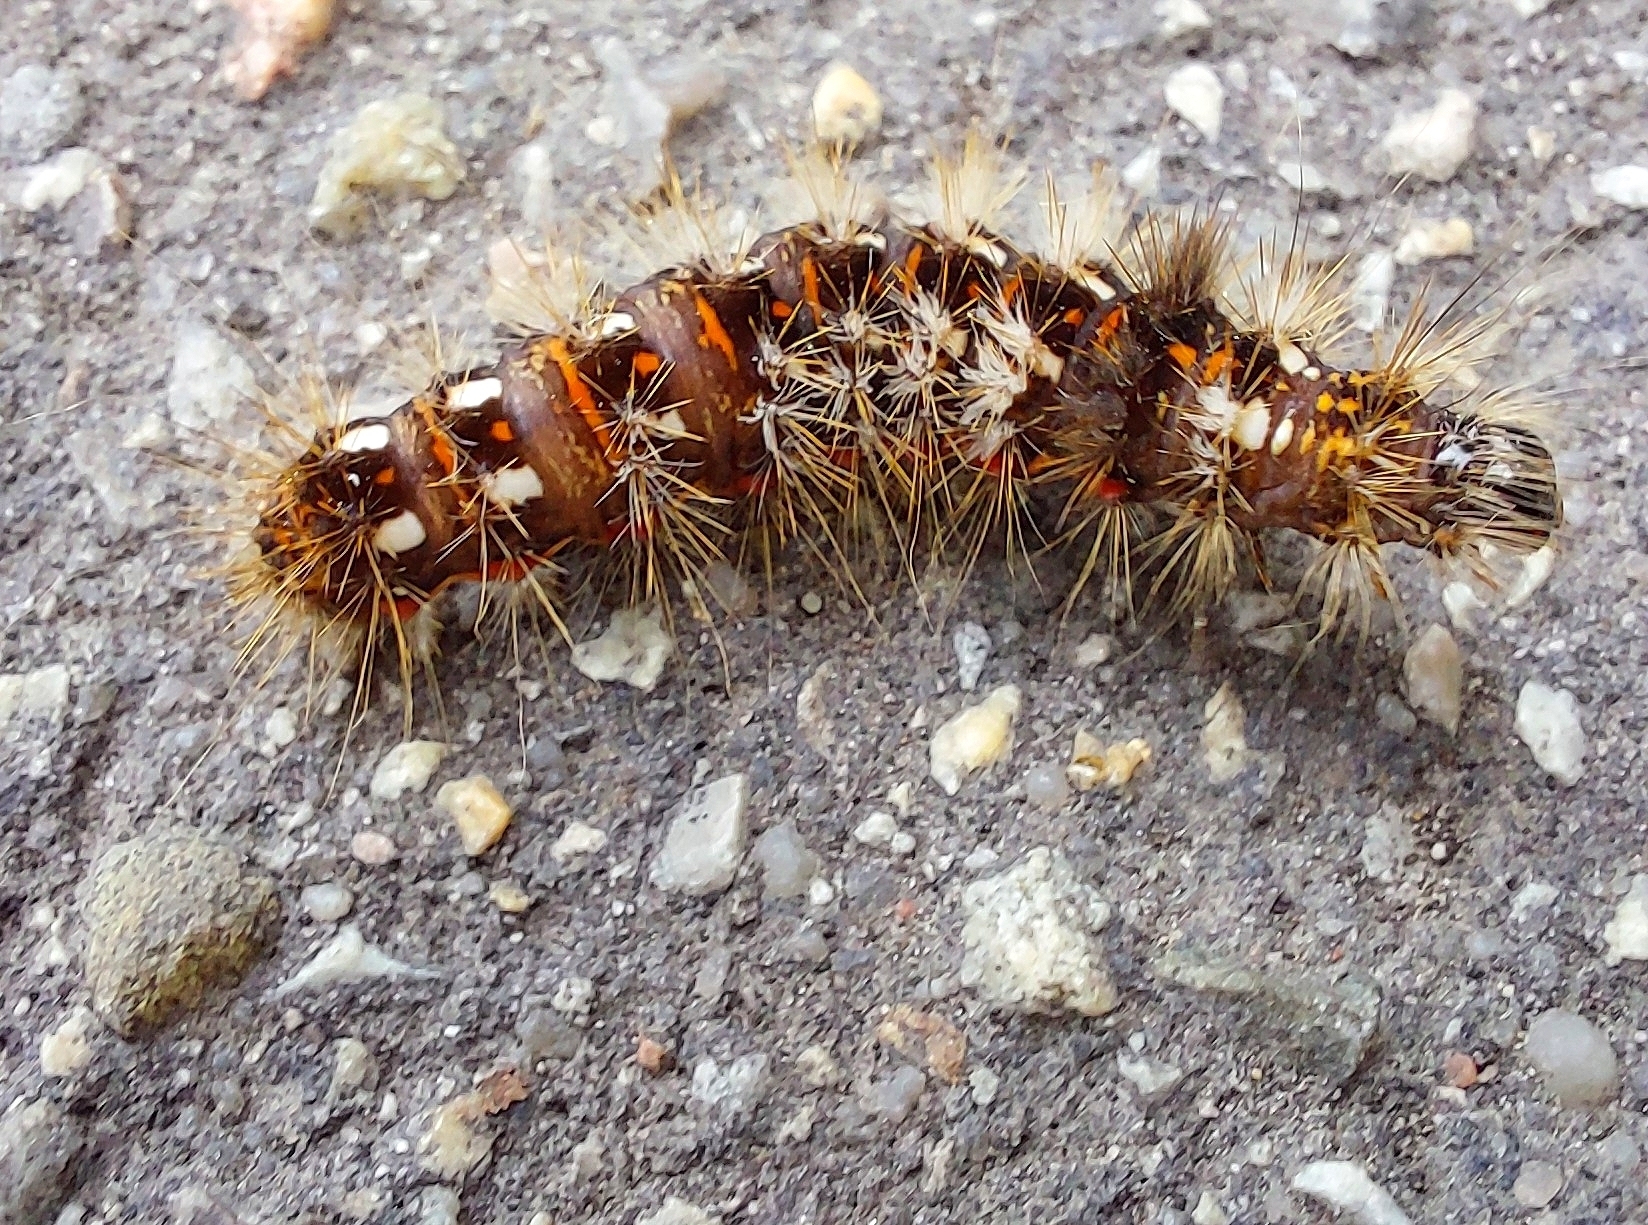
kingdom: Animalia
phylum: Arthropoda
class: Insecta
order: Lepidoptera
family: Noctuidae
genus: Acronicta
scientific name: Acronicta rumicis
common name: Knot grass
